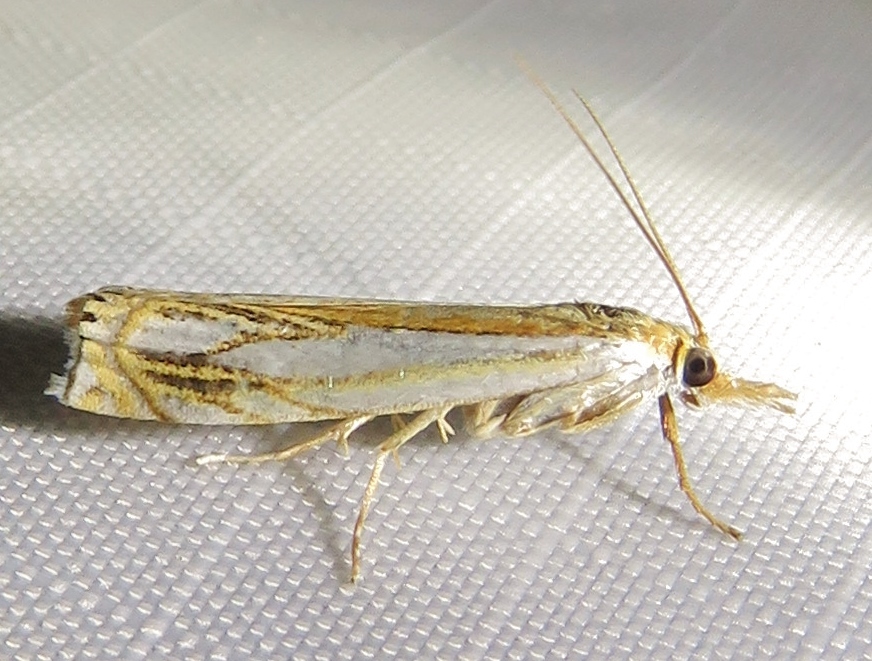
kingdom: Animalia
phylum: Arthropoda
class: Insecta
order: Lepidoptera
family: Crambidae
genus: Crambus
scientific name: Crambus saltuellus
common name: Pasture grass-veneer
